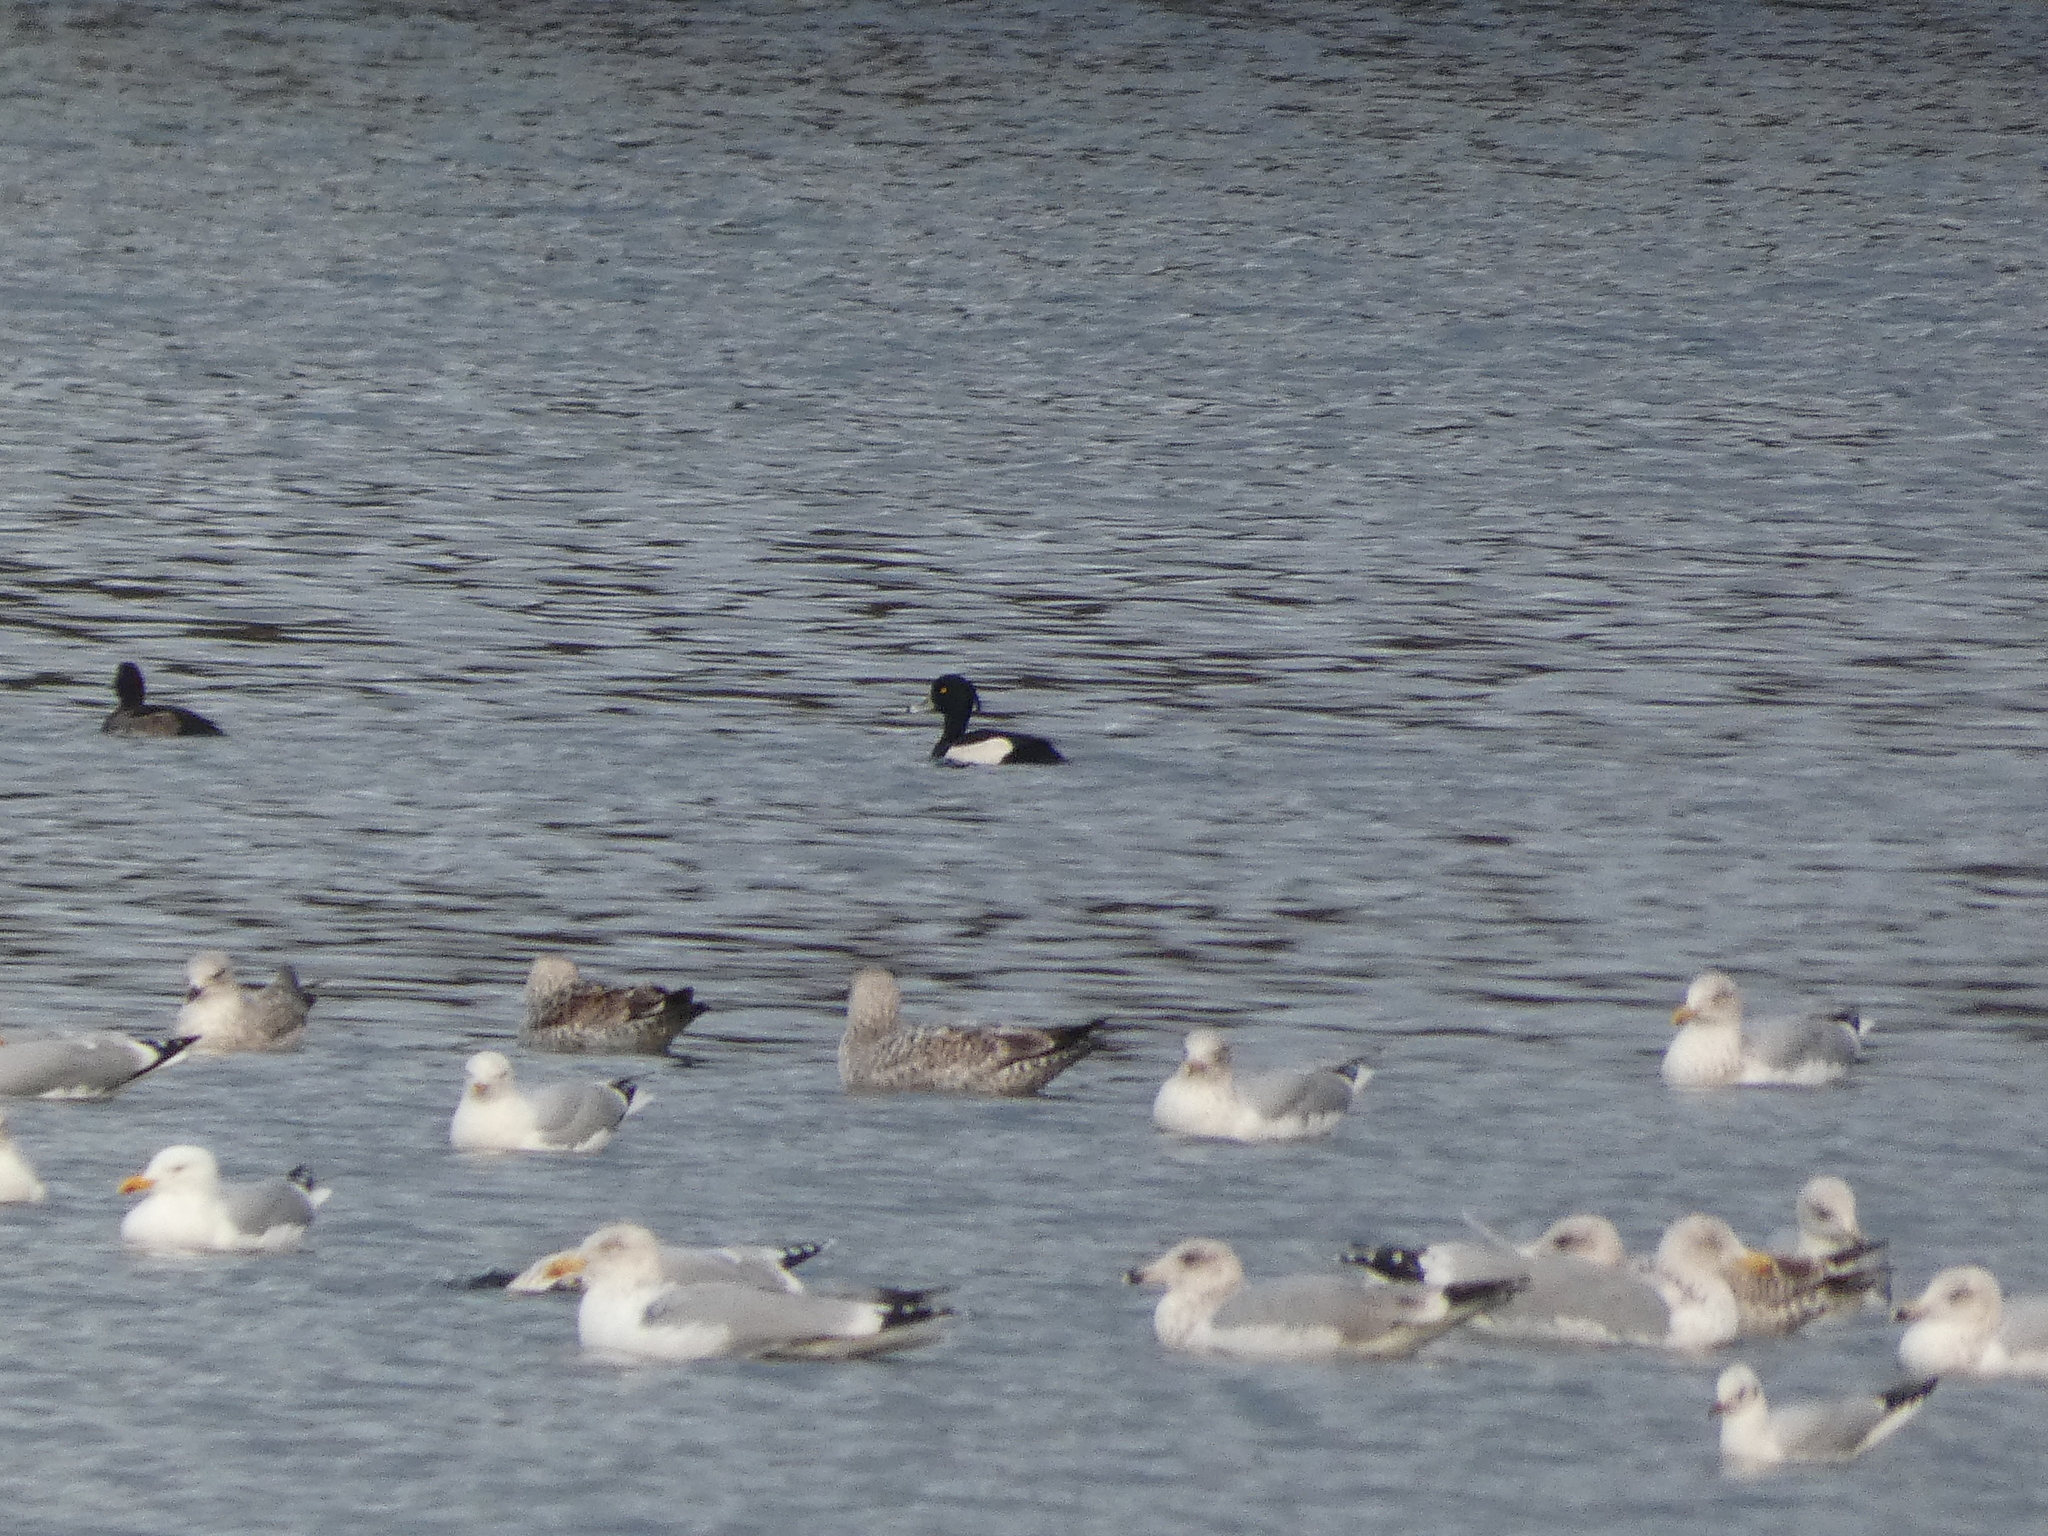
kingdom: Animalia
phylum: Chordata
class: Aves
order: Anseriformes
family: Anatidae
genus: Aythya
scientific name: Aythya fuligula
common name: Tufted duck
